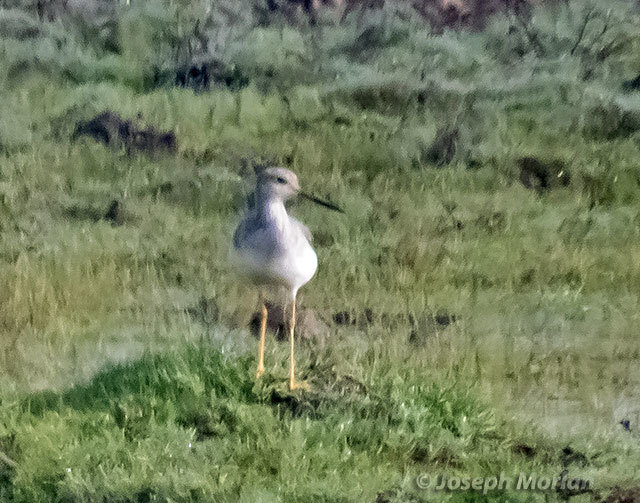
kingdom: Animalia
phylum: Chordata
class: Aves
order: Charadriiformes
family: Scolopacidae
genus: Tringa
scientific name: Tringa melanoleuca
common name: Greater yellowlegs
